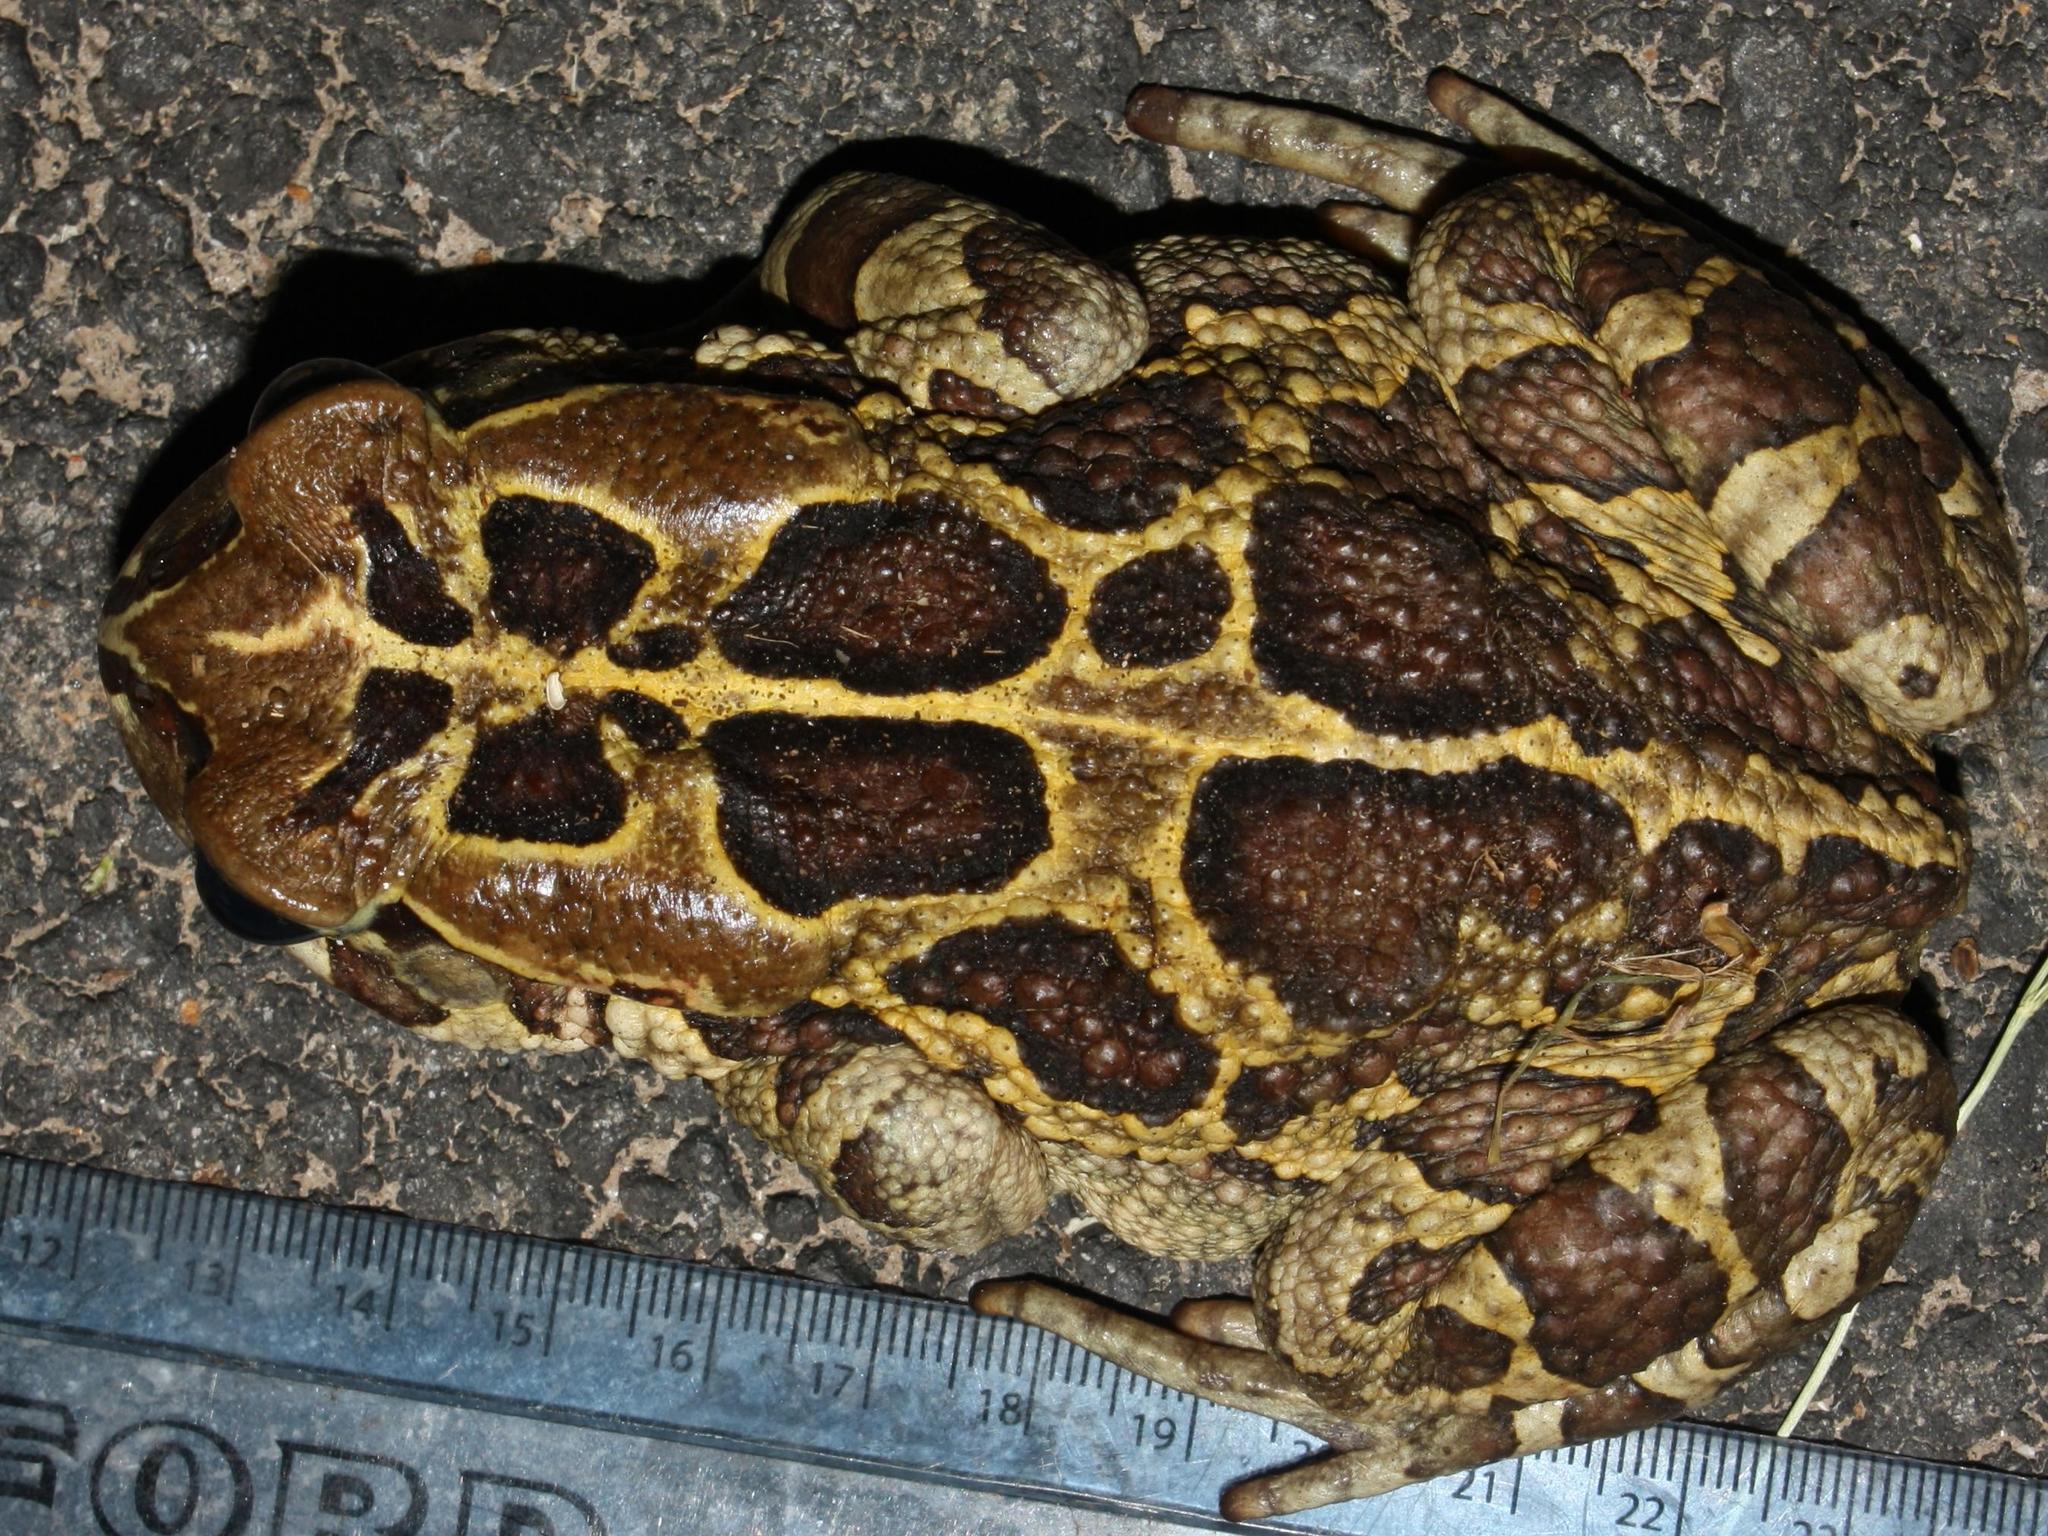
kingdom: Animalia
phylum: Chordata
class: Amphibia
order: Anura
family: Bufonidae
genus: Sclerophrys
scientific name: Sclerophrys pantherina
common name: Panther toad
